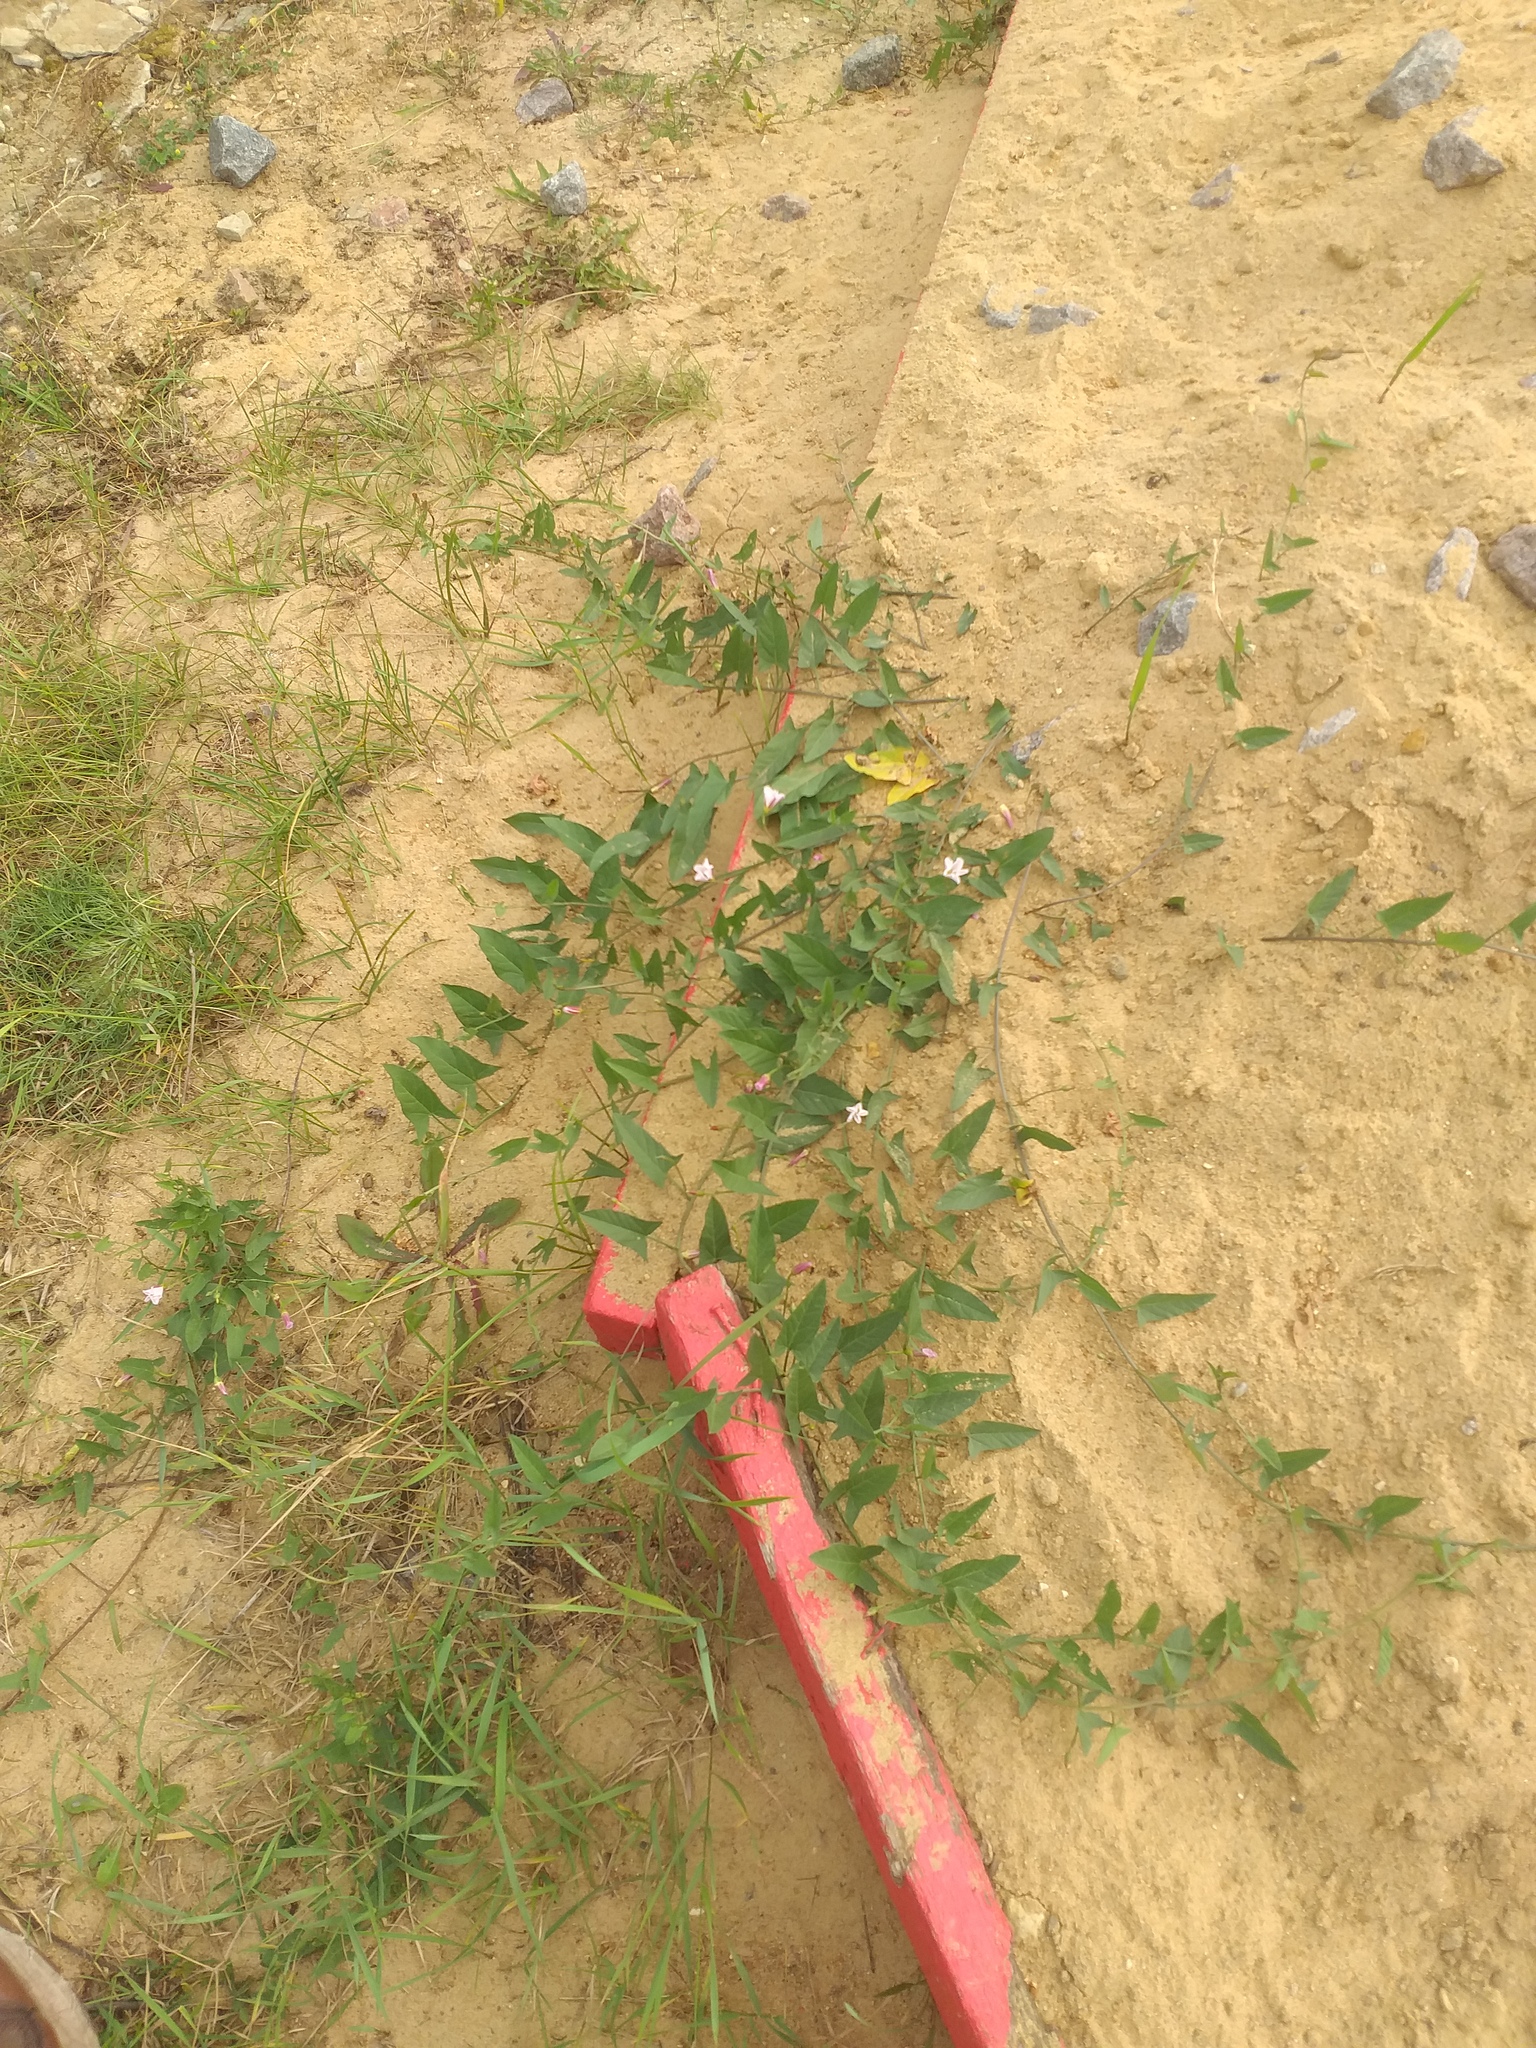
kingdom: Plantae
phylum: Tracheophyta
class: Magnoliopsida
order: Solanales
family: Convolvulaceae
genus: Convolvulus
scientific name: Convolvulus arvensis
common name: Field bindweed
